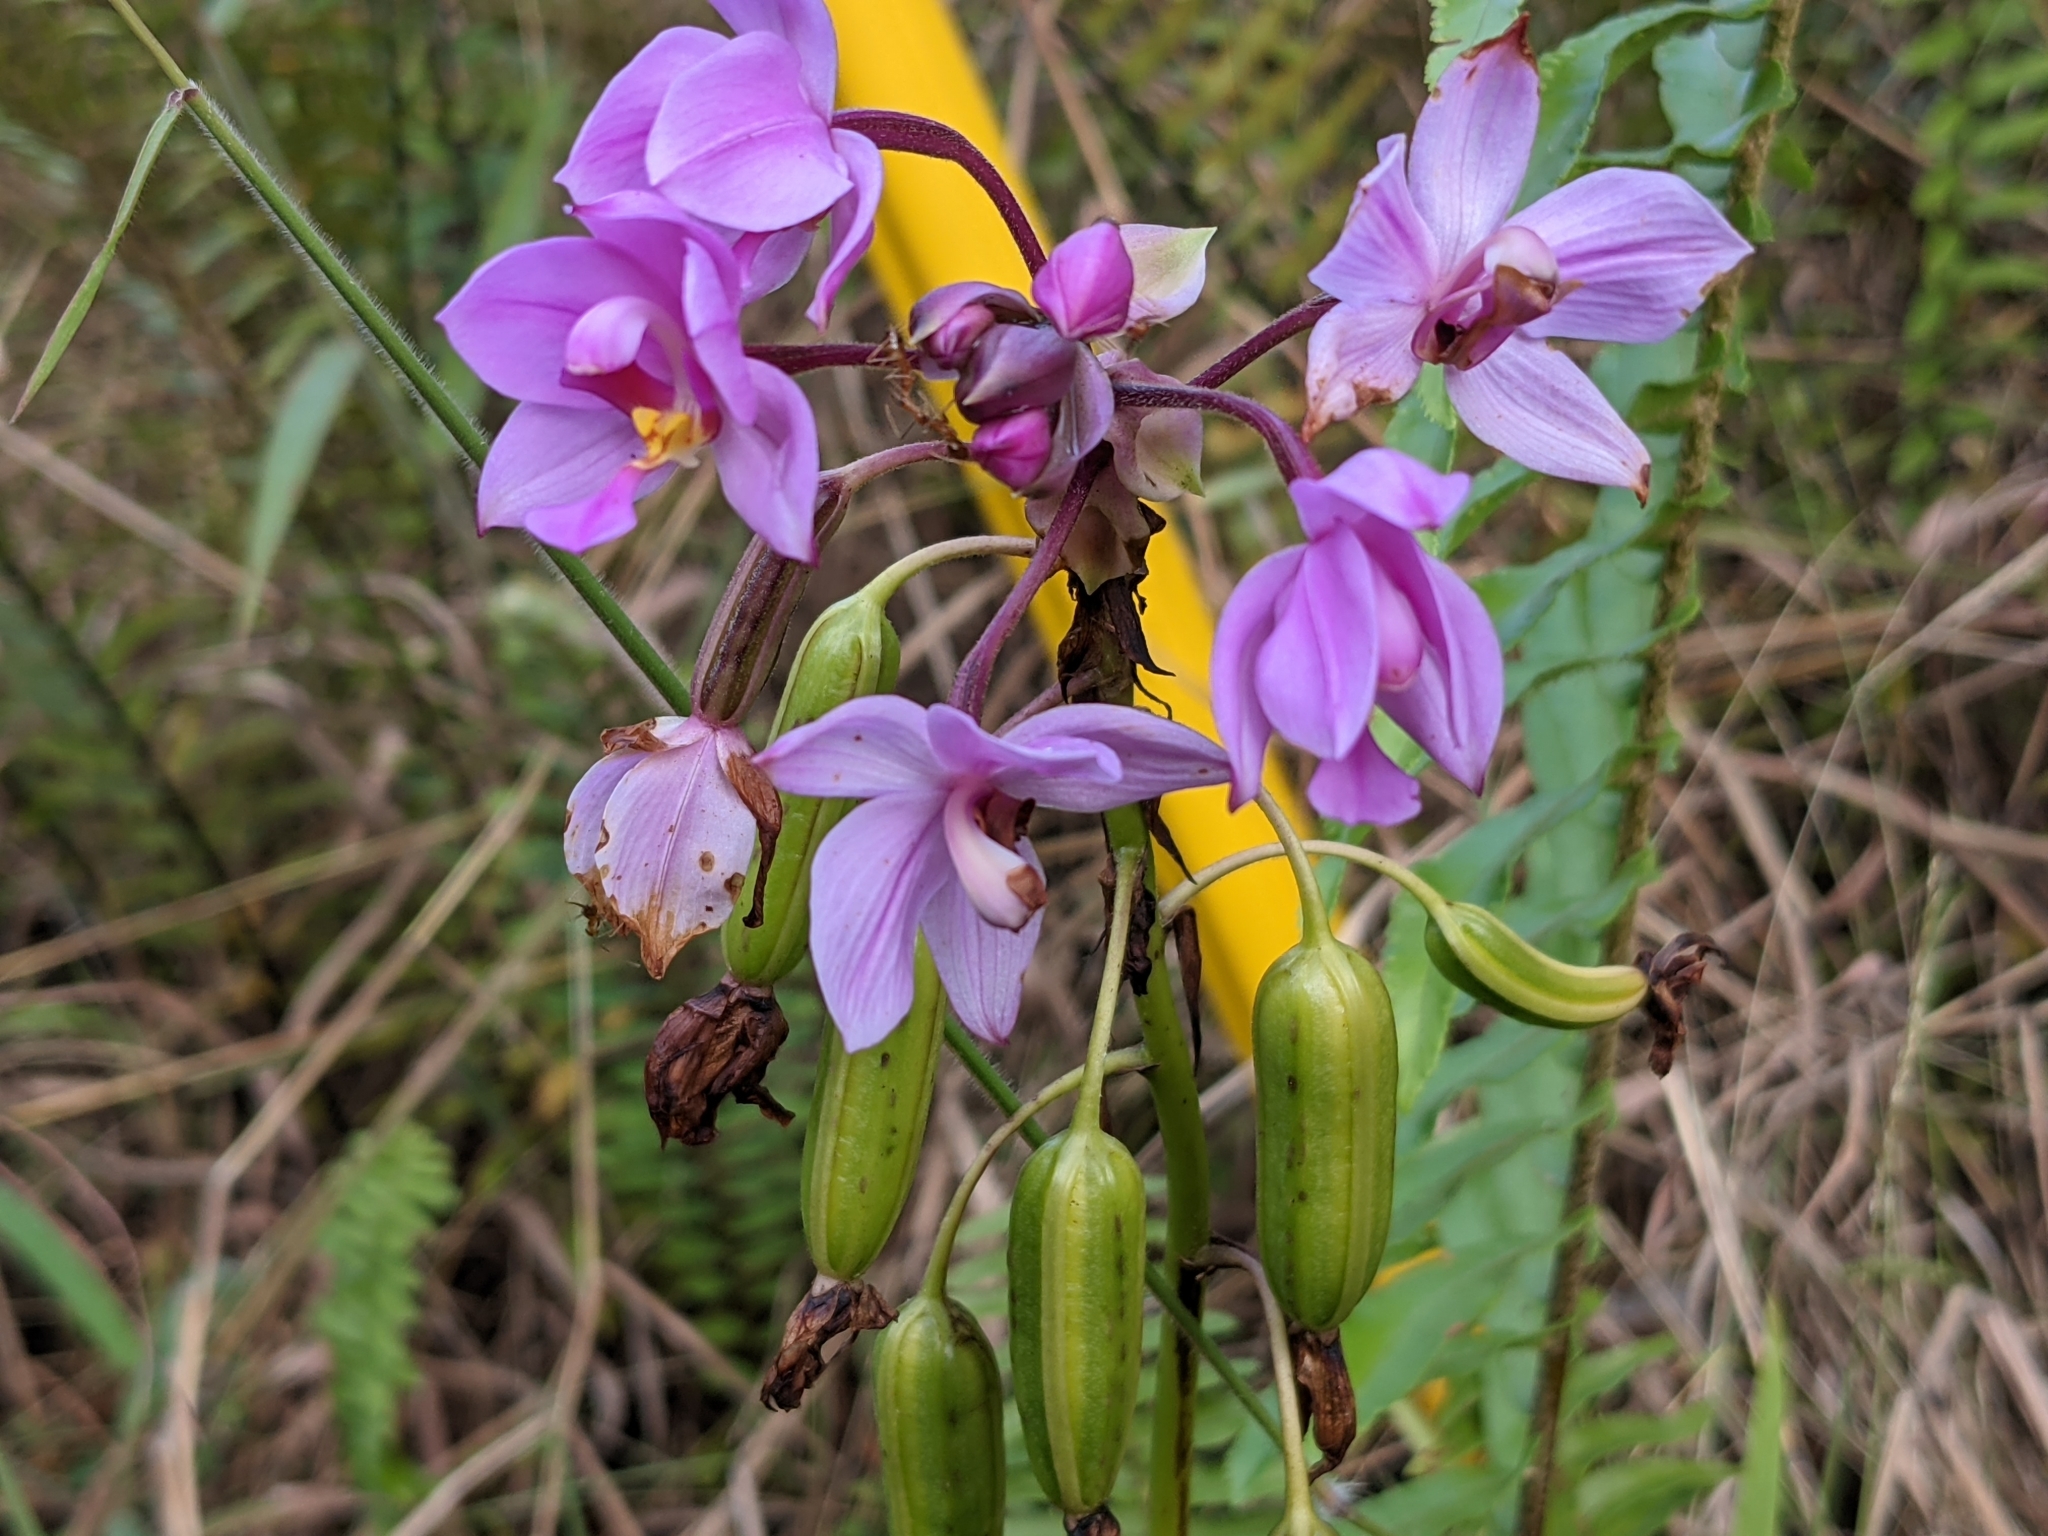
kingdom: Plantae
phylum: Tracheophyta
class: Liliopsida
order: Asparagales
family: Orchidaceae
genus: Spathoglottis
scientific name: Spathoglottis plicata
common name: Philippine ground orchid
